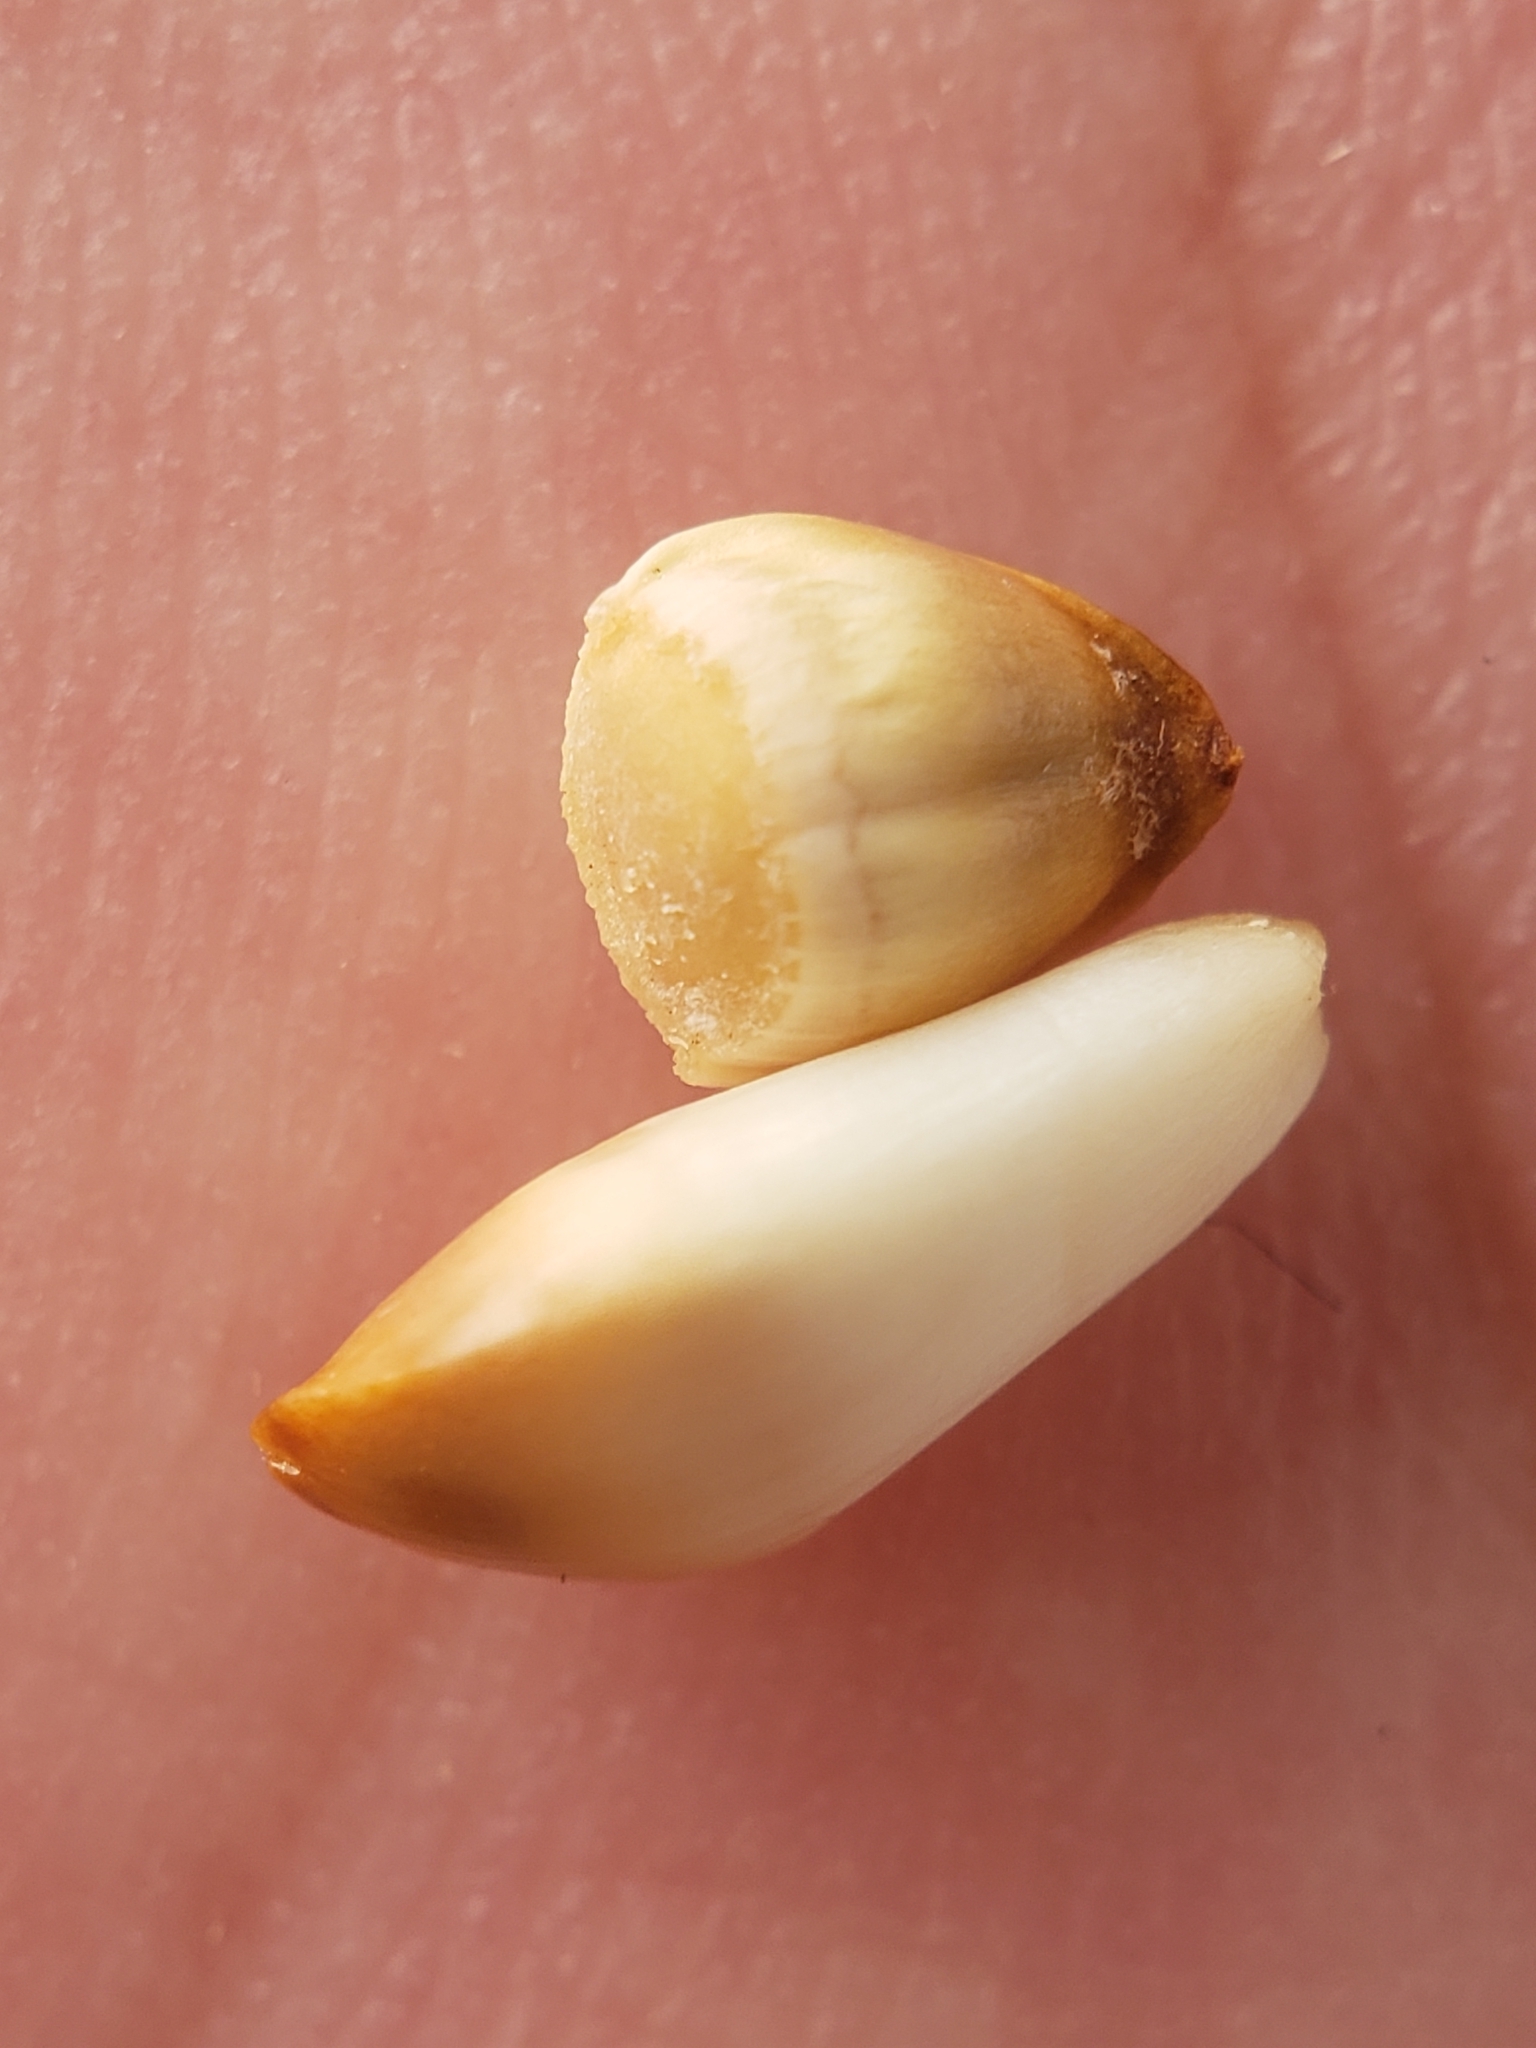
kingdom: Animalia
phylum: Arthropoda
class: Insecta
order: Hymenoptera
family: Cynipidae
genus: Callirhytis
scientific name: Callirhytis
